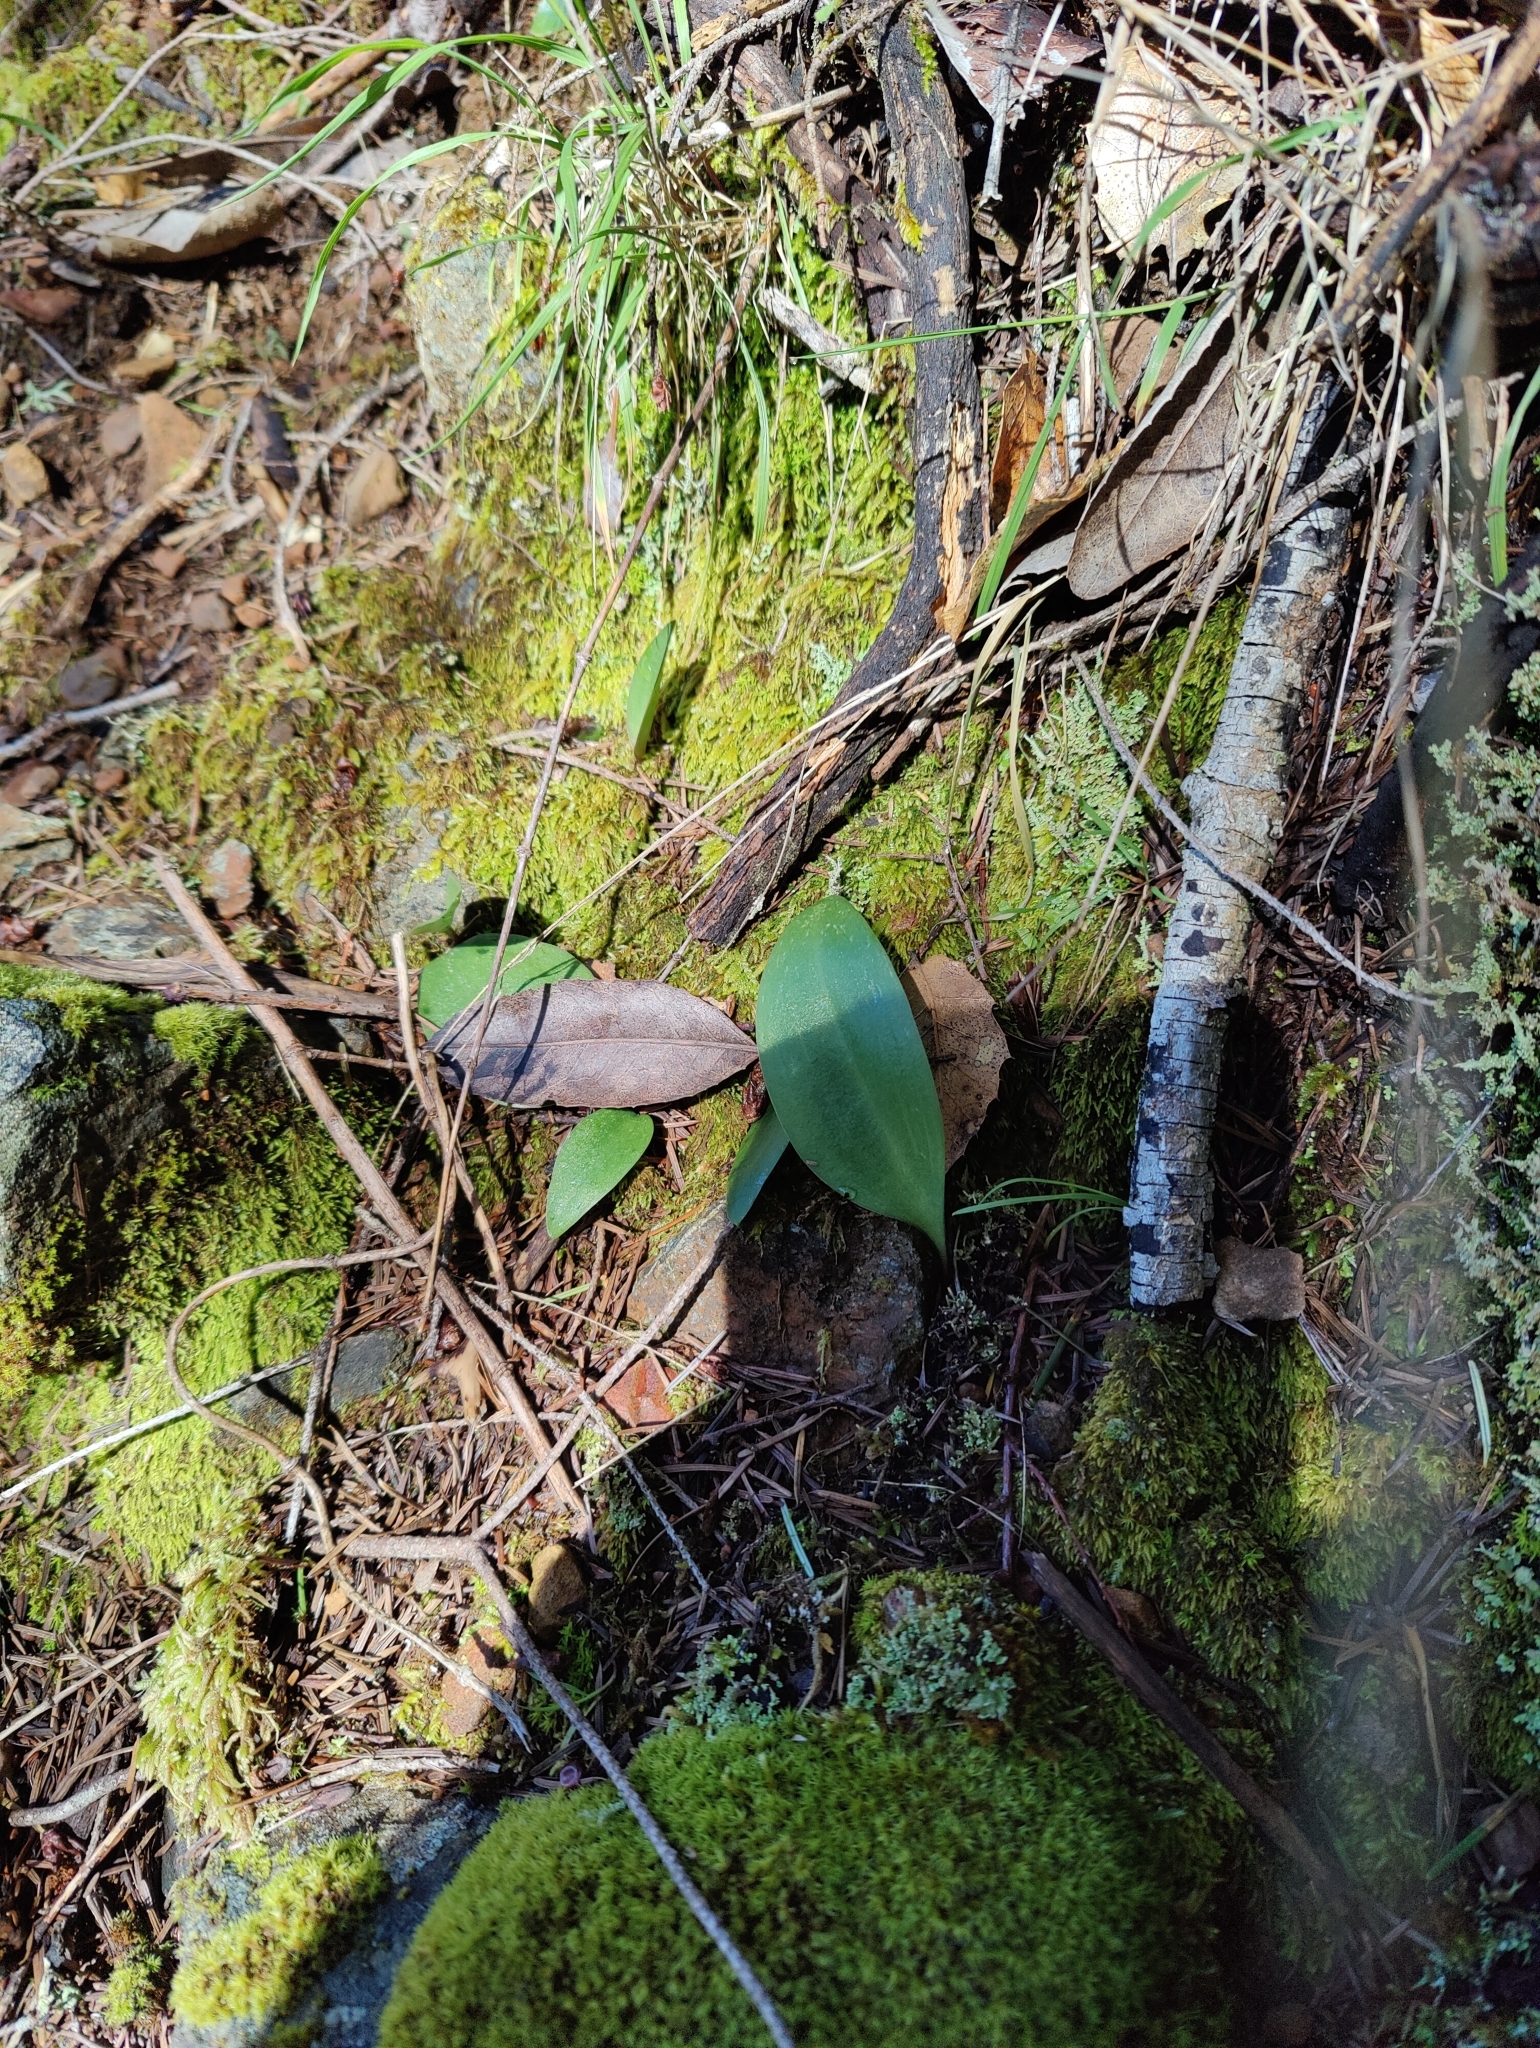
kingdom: Plantae
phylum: Tracheophyta
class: Liliopsida
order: Liliales
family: Liliaceae
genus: Fritillaria
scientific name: Fritillaria affinis
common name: Ojai fritillary
